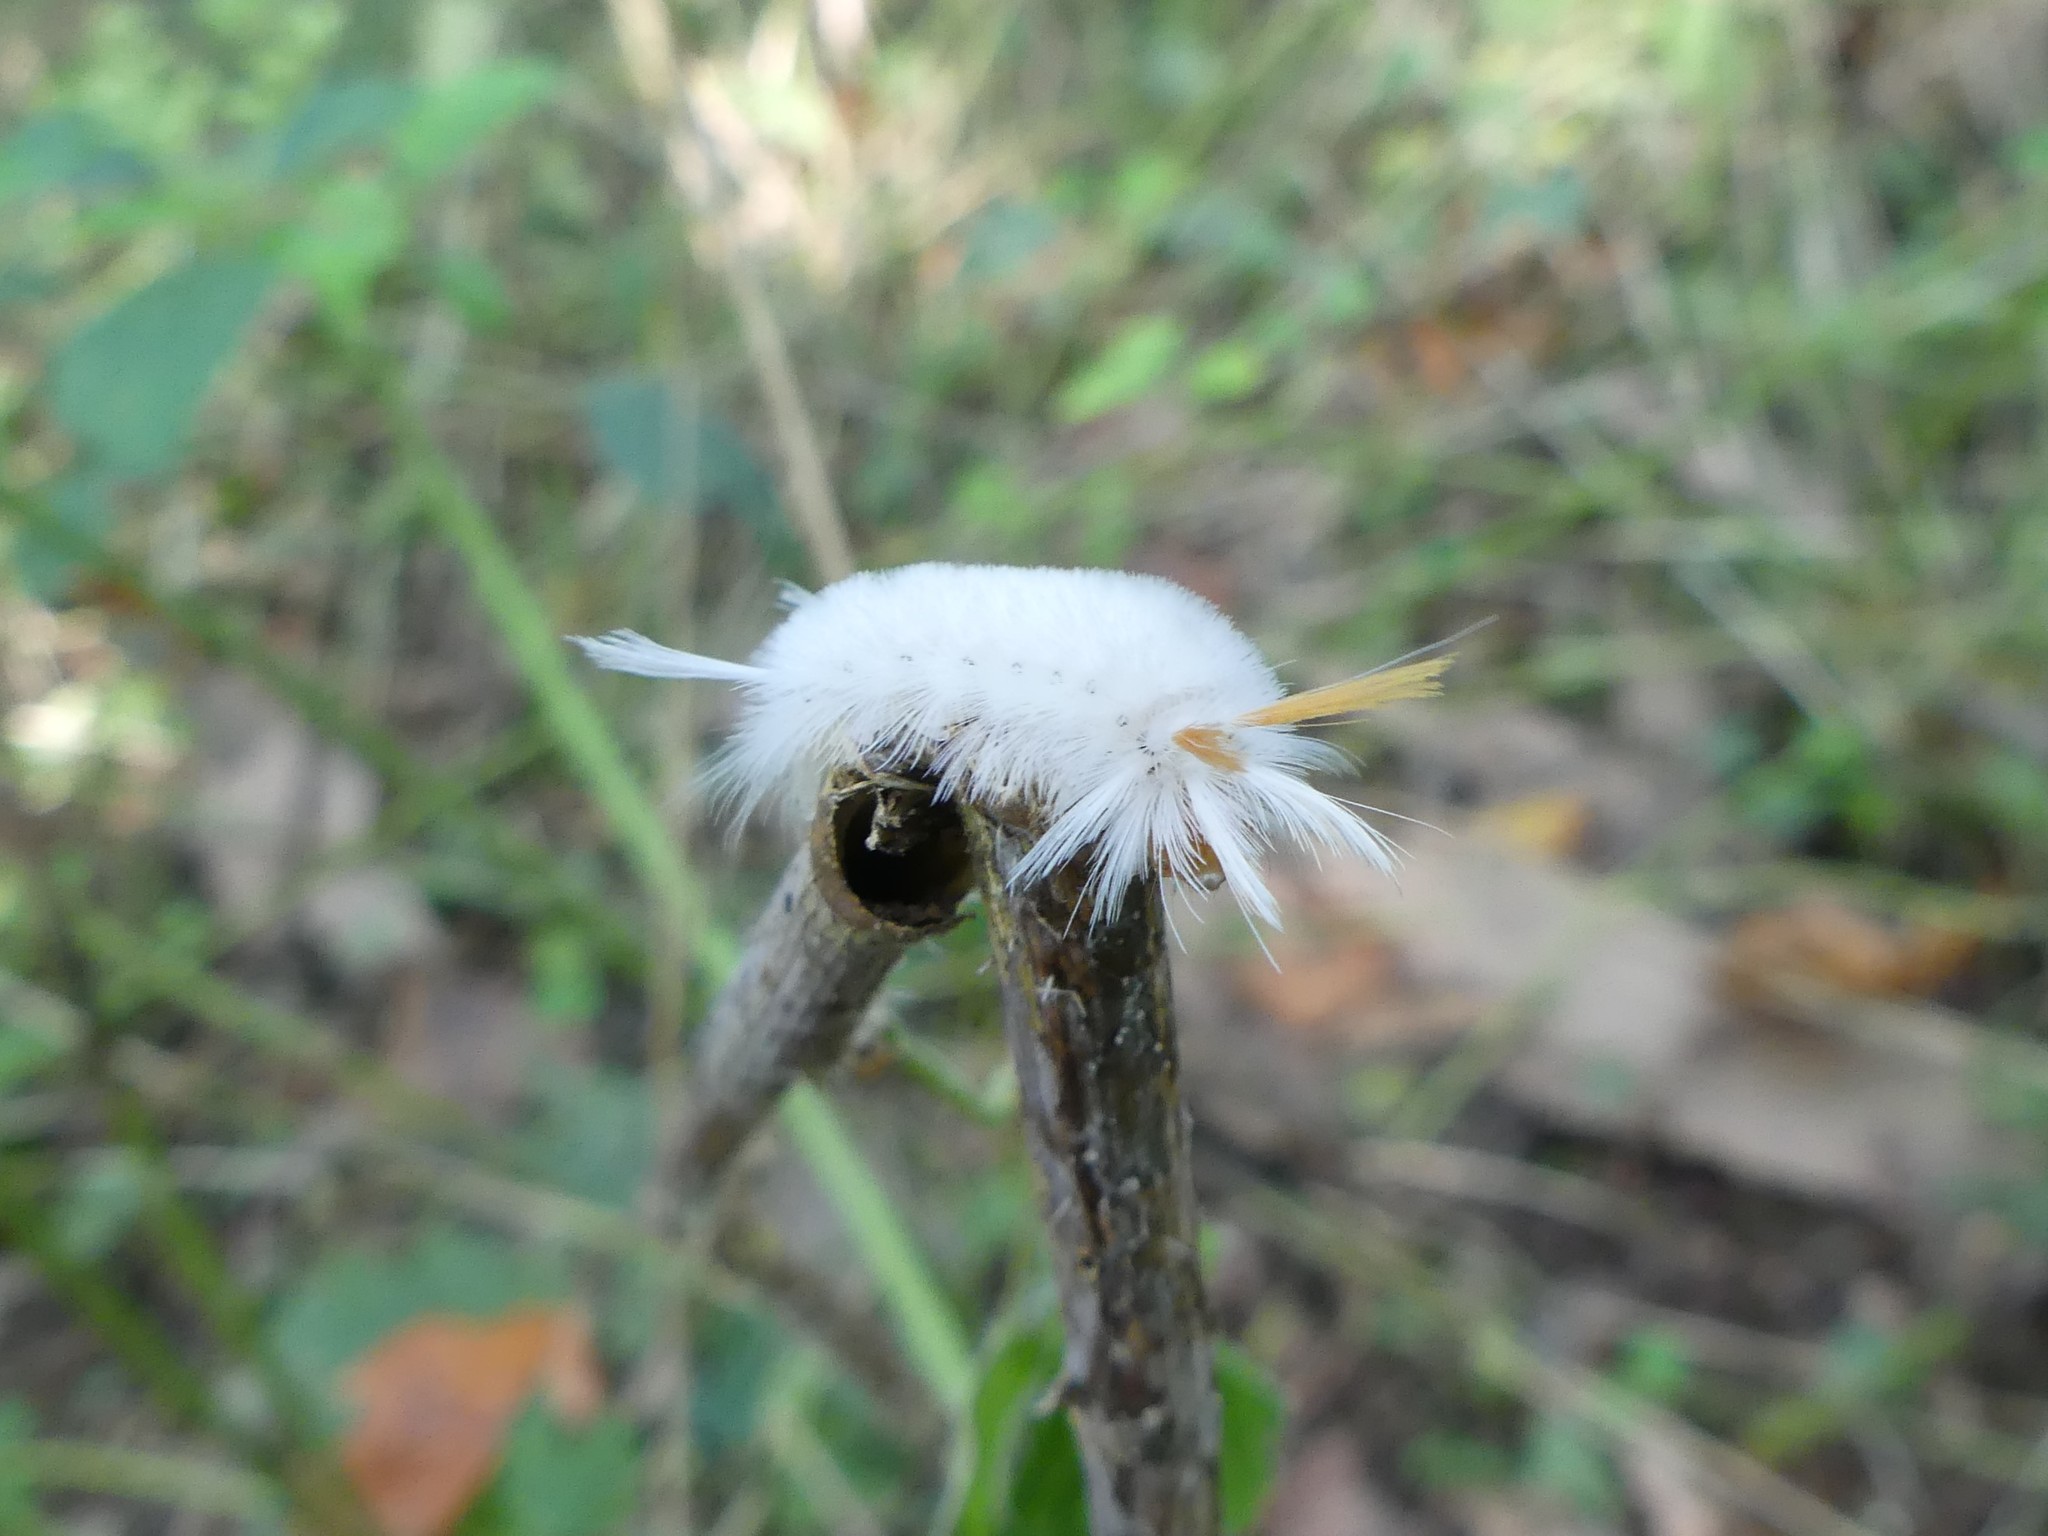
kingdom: Animalia
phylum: Arthropoda
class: Insecta
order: Lepidoptera
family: Erebidae
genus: Halysidota
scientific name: Halysidota harrisii
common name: Sycamore tussock moth
